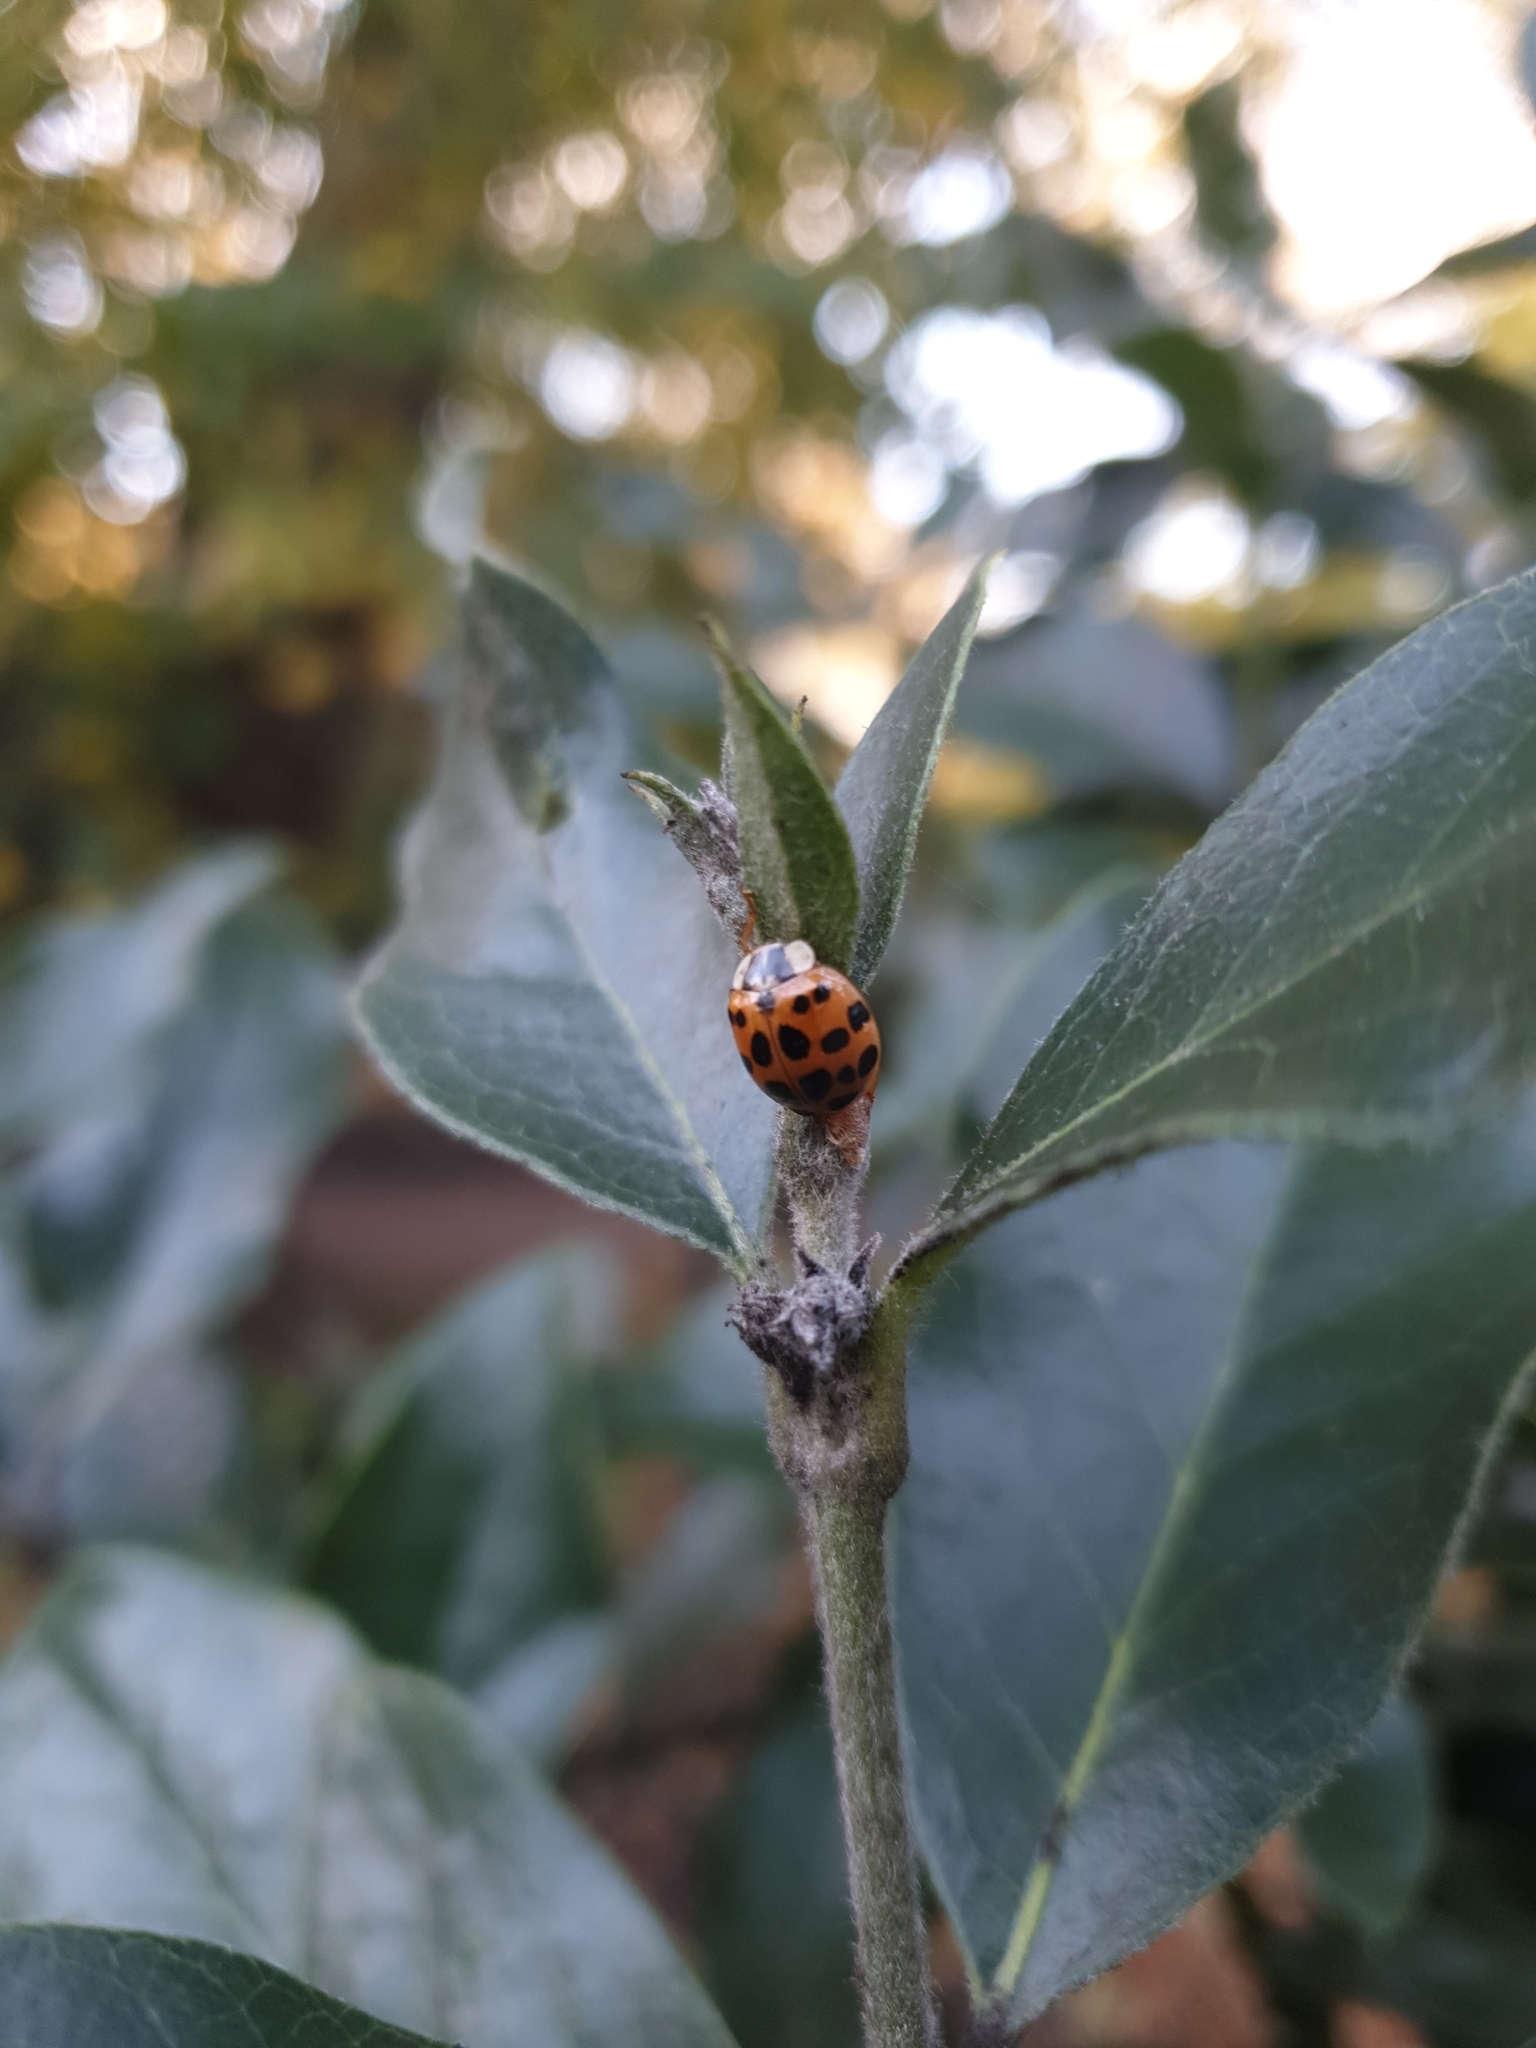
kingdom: Animalia
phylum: Arthropoda
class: Insecta
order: Coleoptera
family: Coccinellidae
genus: Harmonia
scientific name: Harmonia axyridis
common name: Harlequin ladybird
